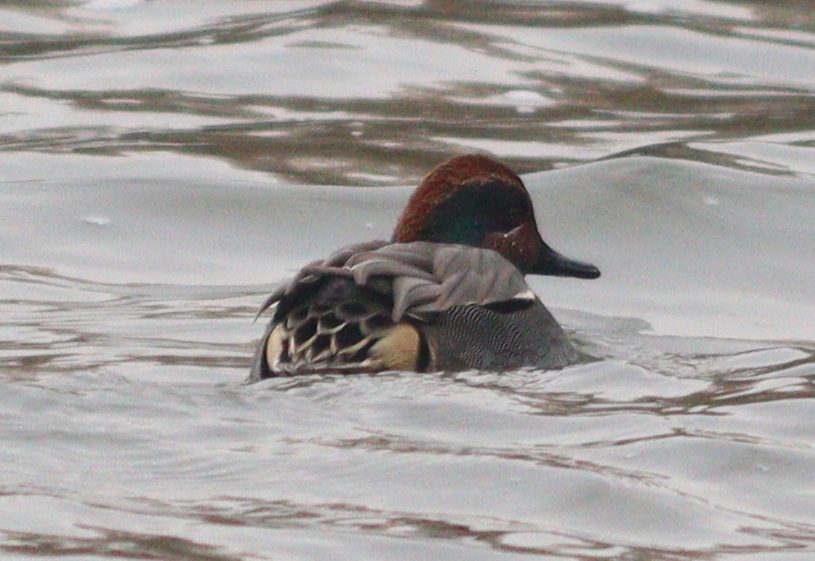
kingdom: Animalia
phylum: Chordata
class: Aves
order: Anseriformes
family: Anatidae
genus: Anas
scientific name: Anas crecca
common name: Eurasian teal
